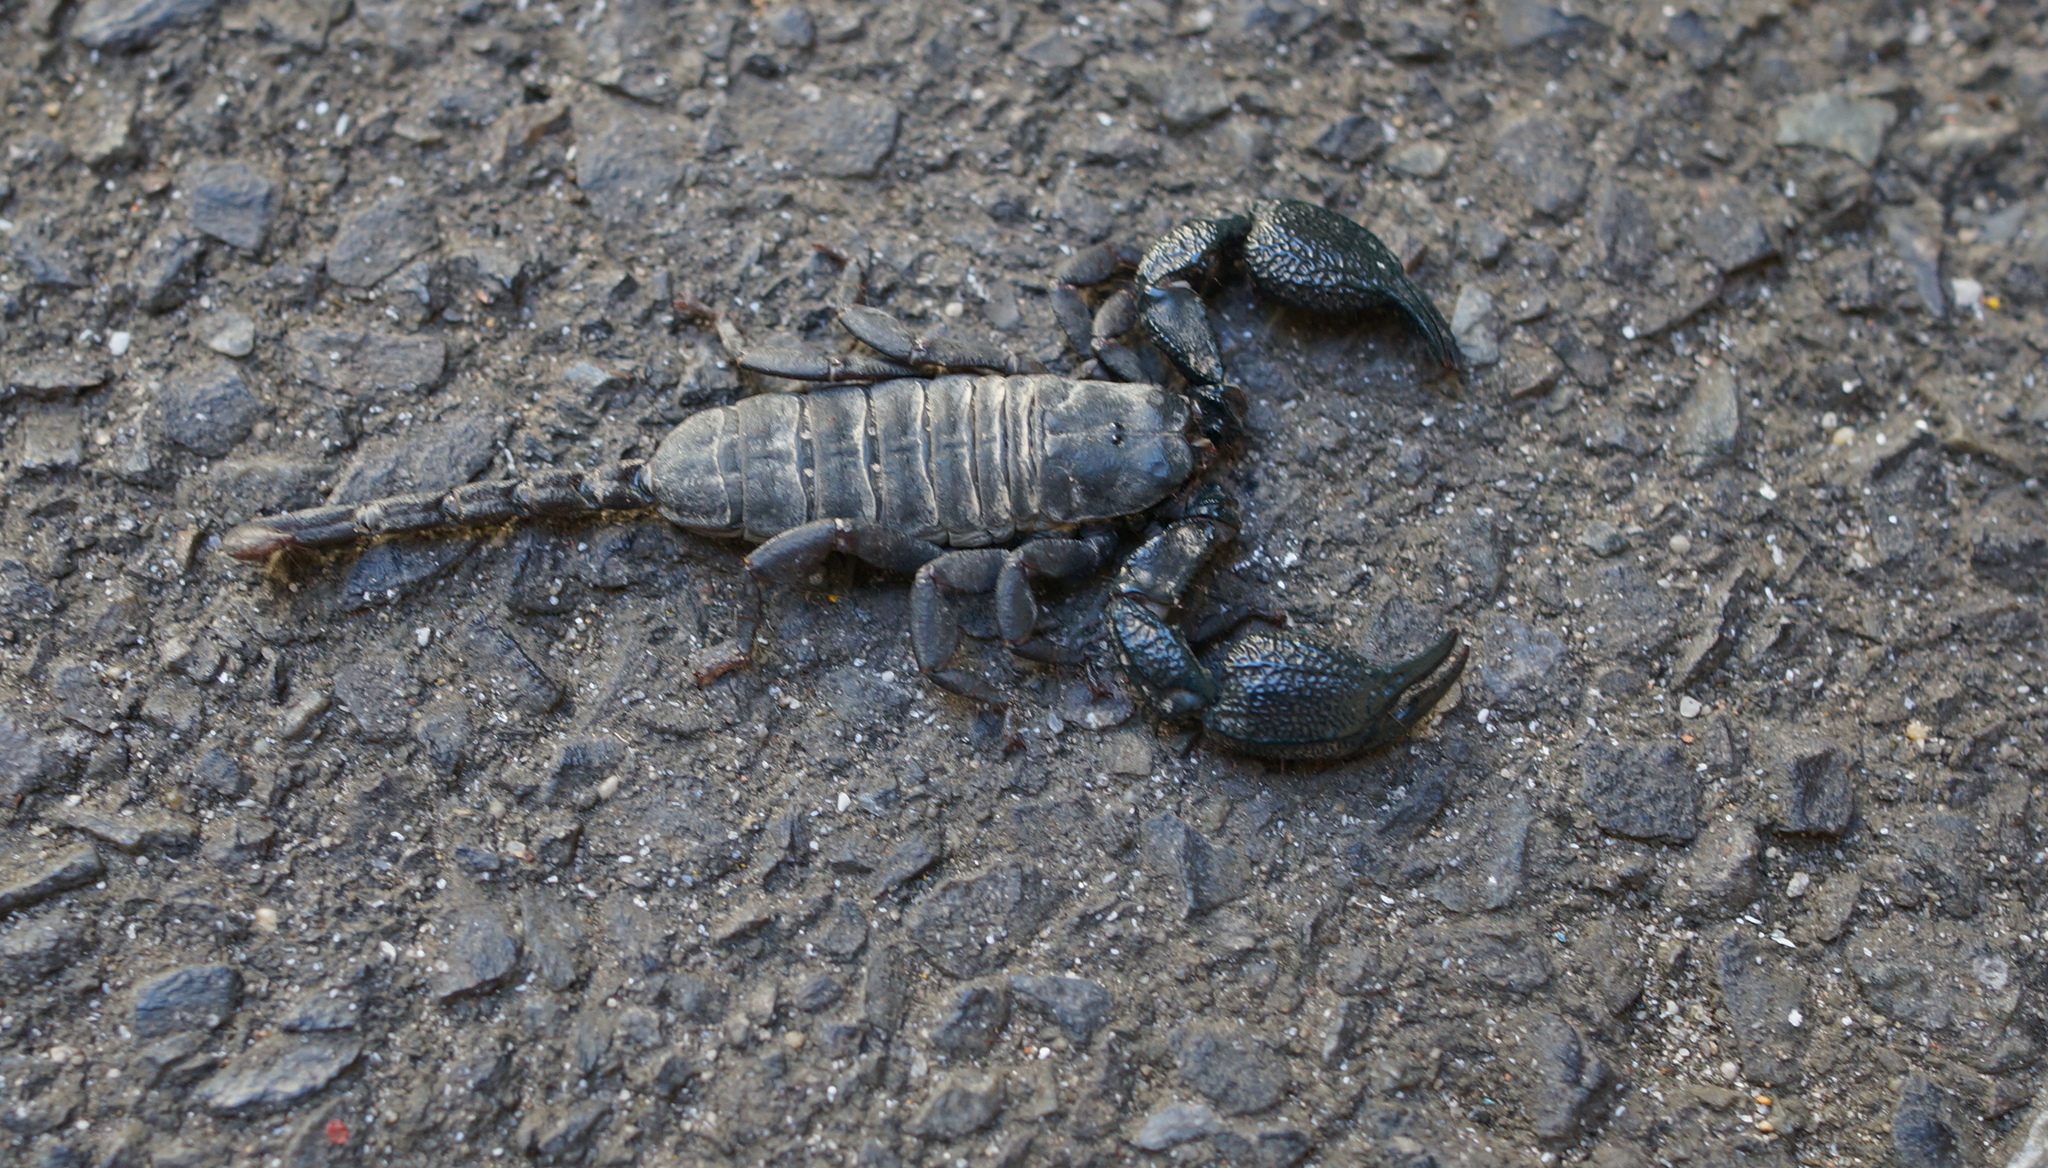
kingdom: Animalia
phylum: Arthropoda
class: Arachnida
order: Scorpiones
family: Hormuridae
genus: Opisthacanthus
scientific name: Opisthacanthus capensis
